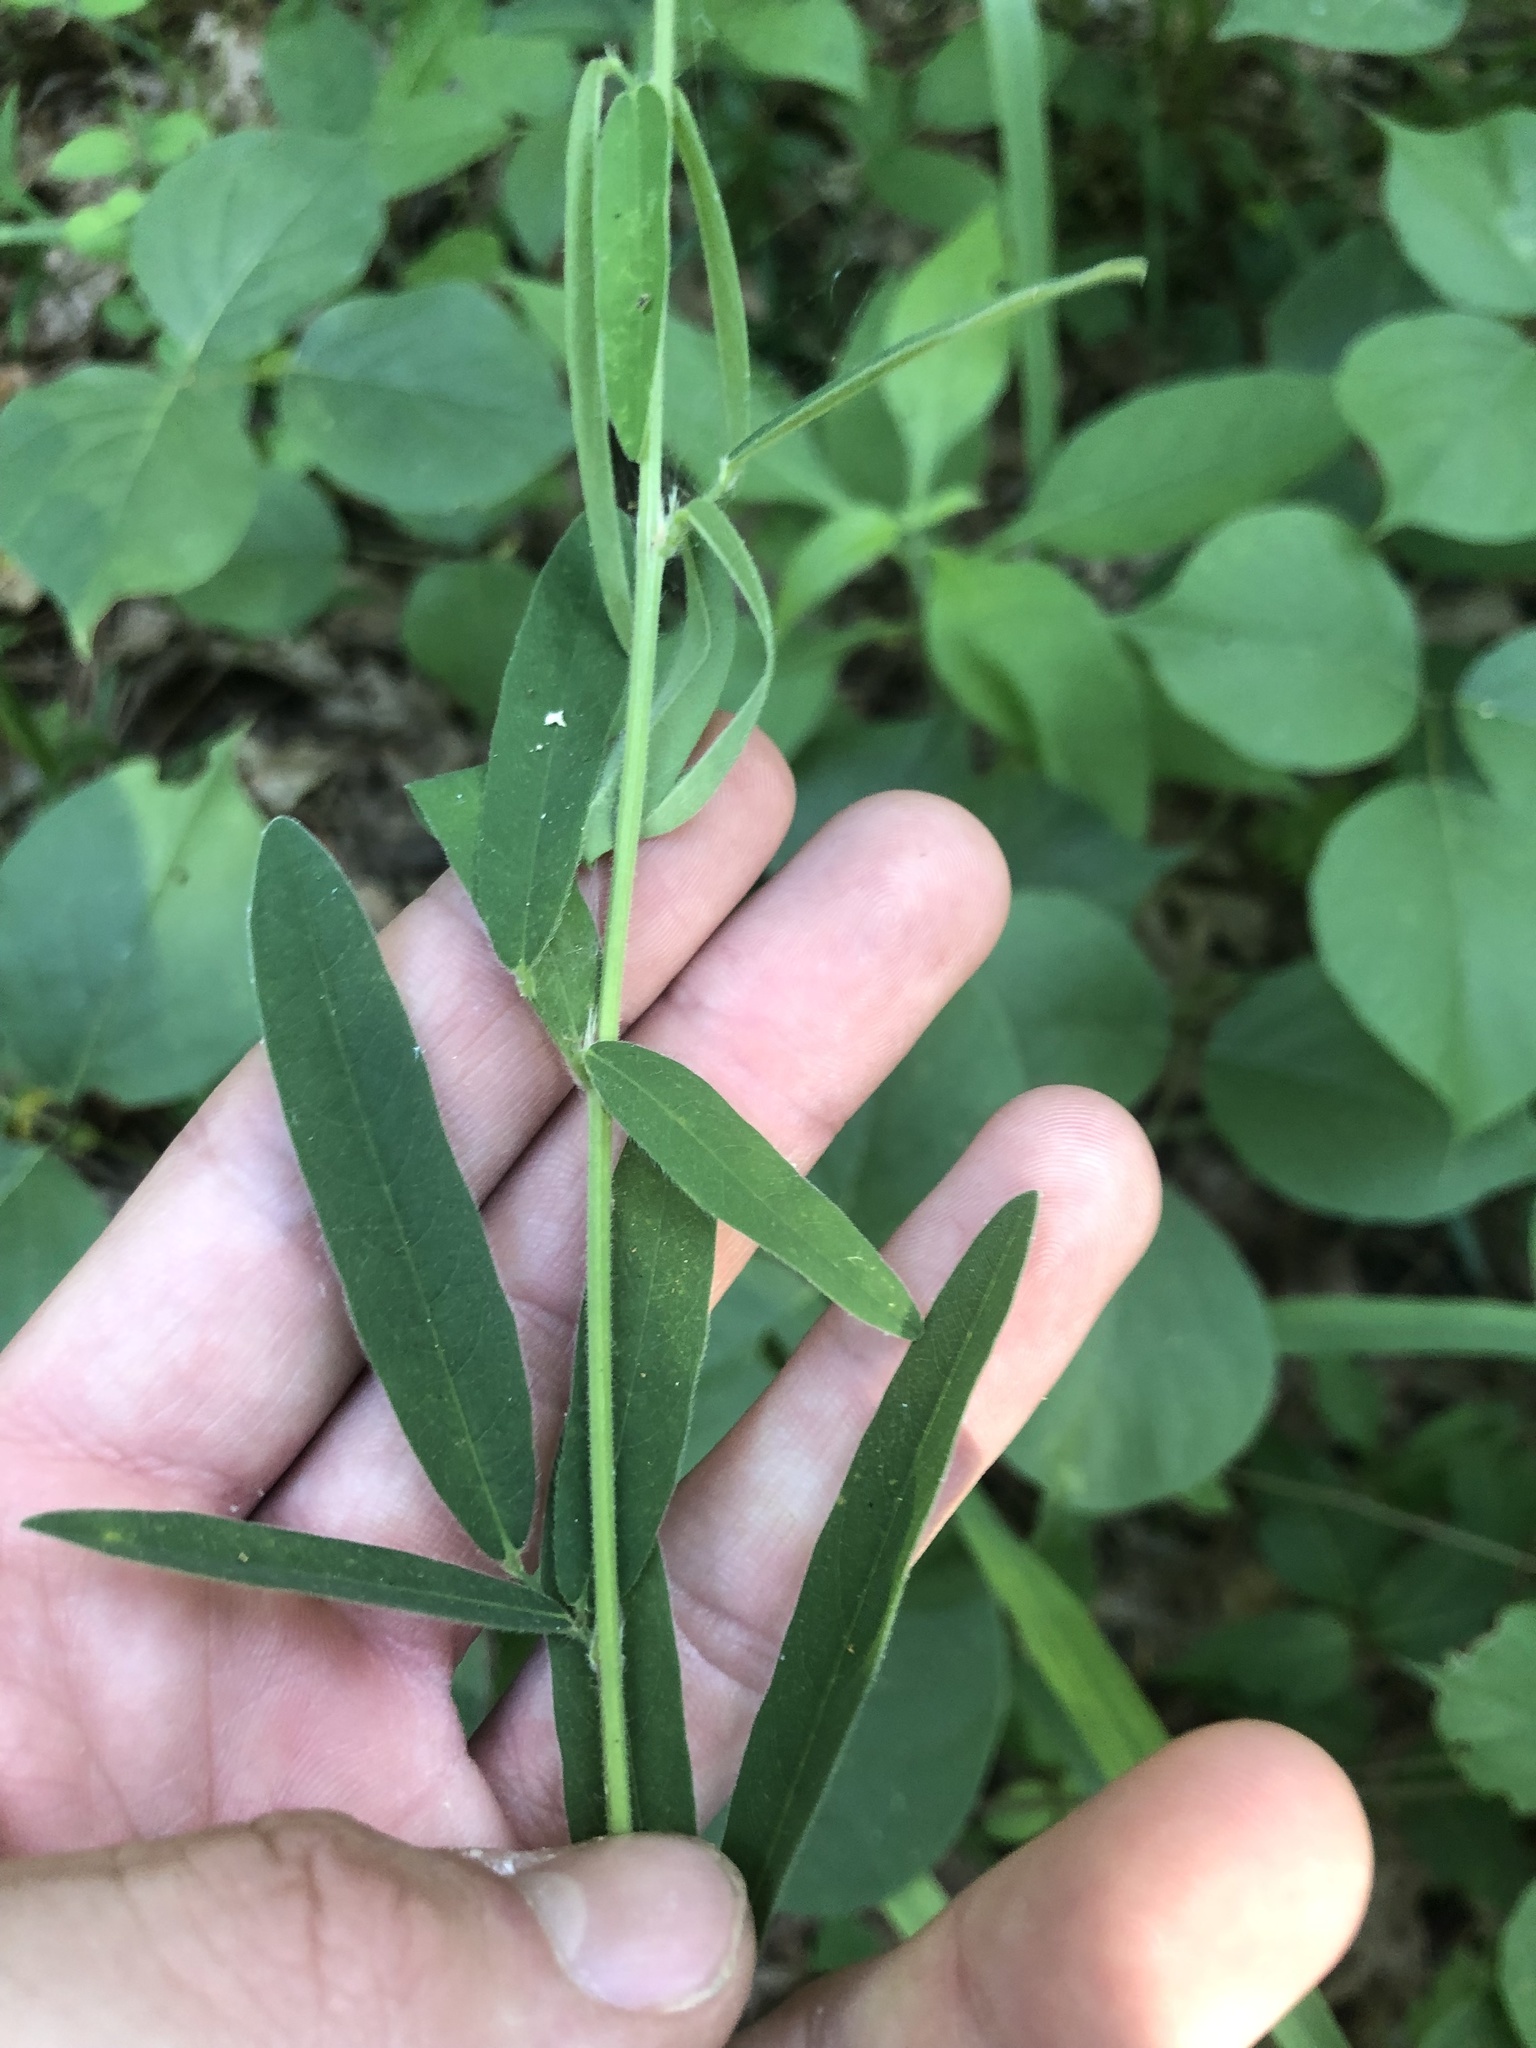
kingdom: Plantae
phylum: Tracheophyta
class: Magnoliopsida
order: Fabales
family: Fabaceae
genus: Desmodium
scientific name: Desmodium sessilifolium
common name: Sessile tick-clover
